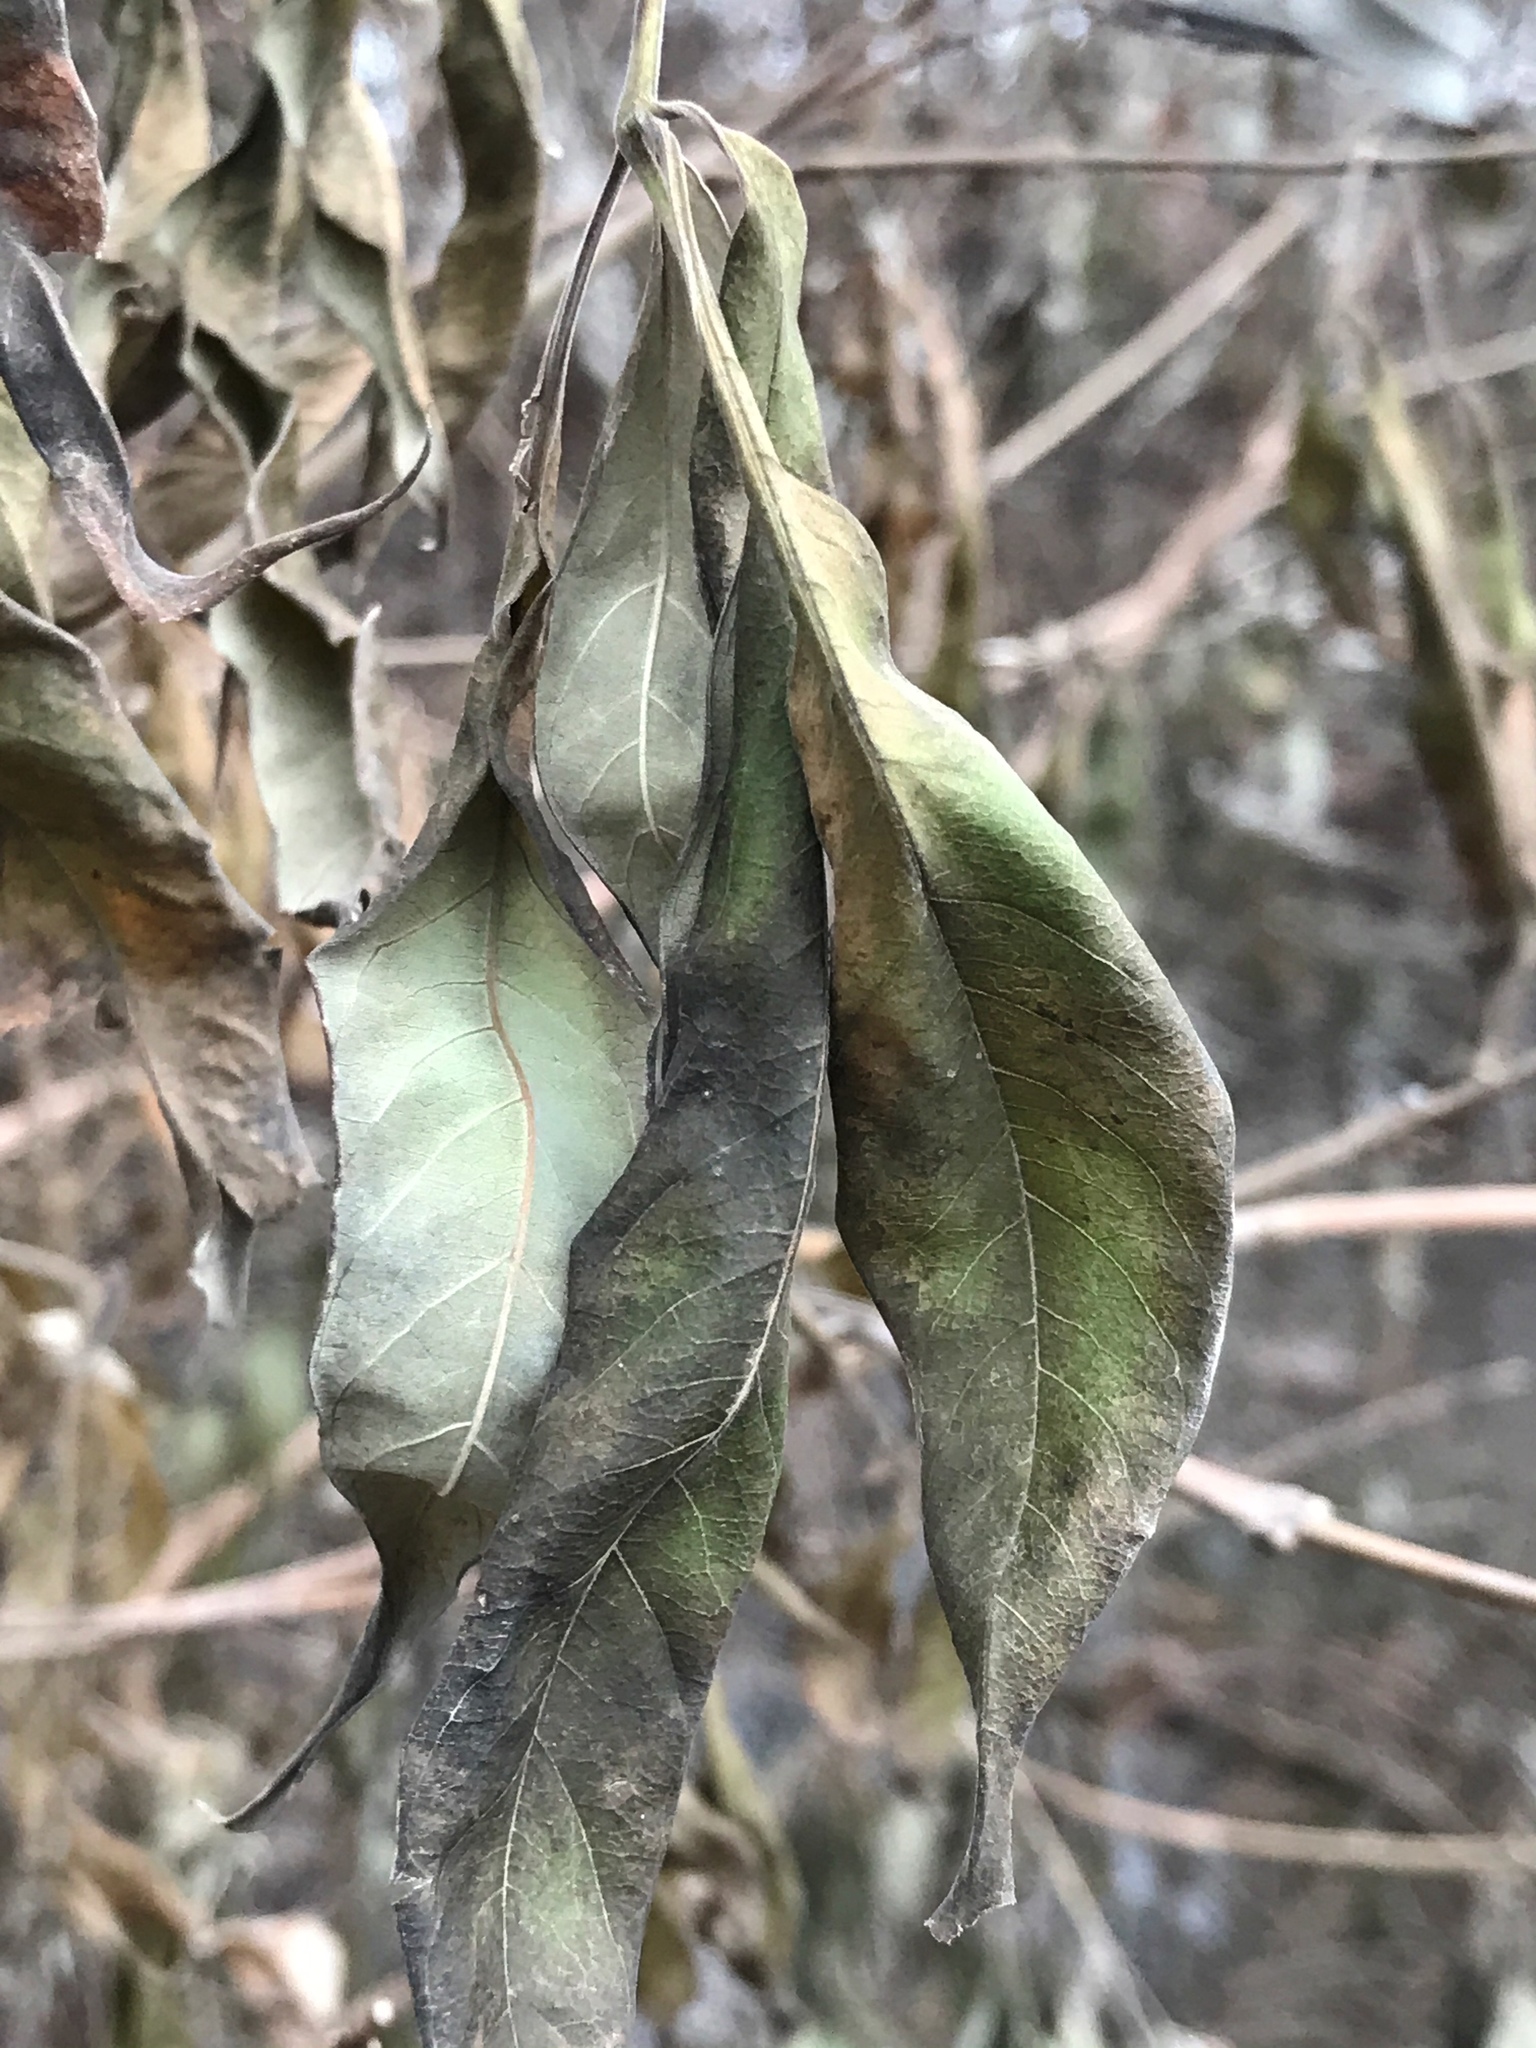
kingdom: Plantae
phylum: Tracheophyta
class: Magnoliopsida
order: Lamiales
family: Lamiaceae
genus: Vitex
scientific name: Vitex negundo
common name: Chinese chastetree
